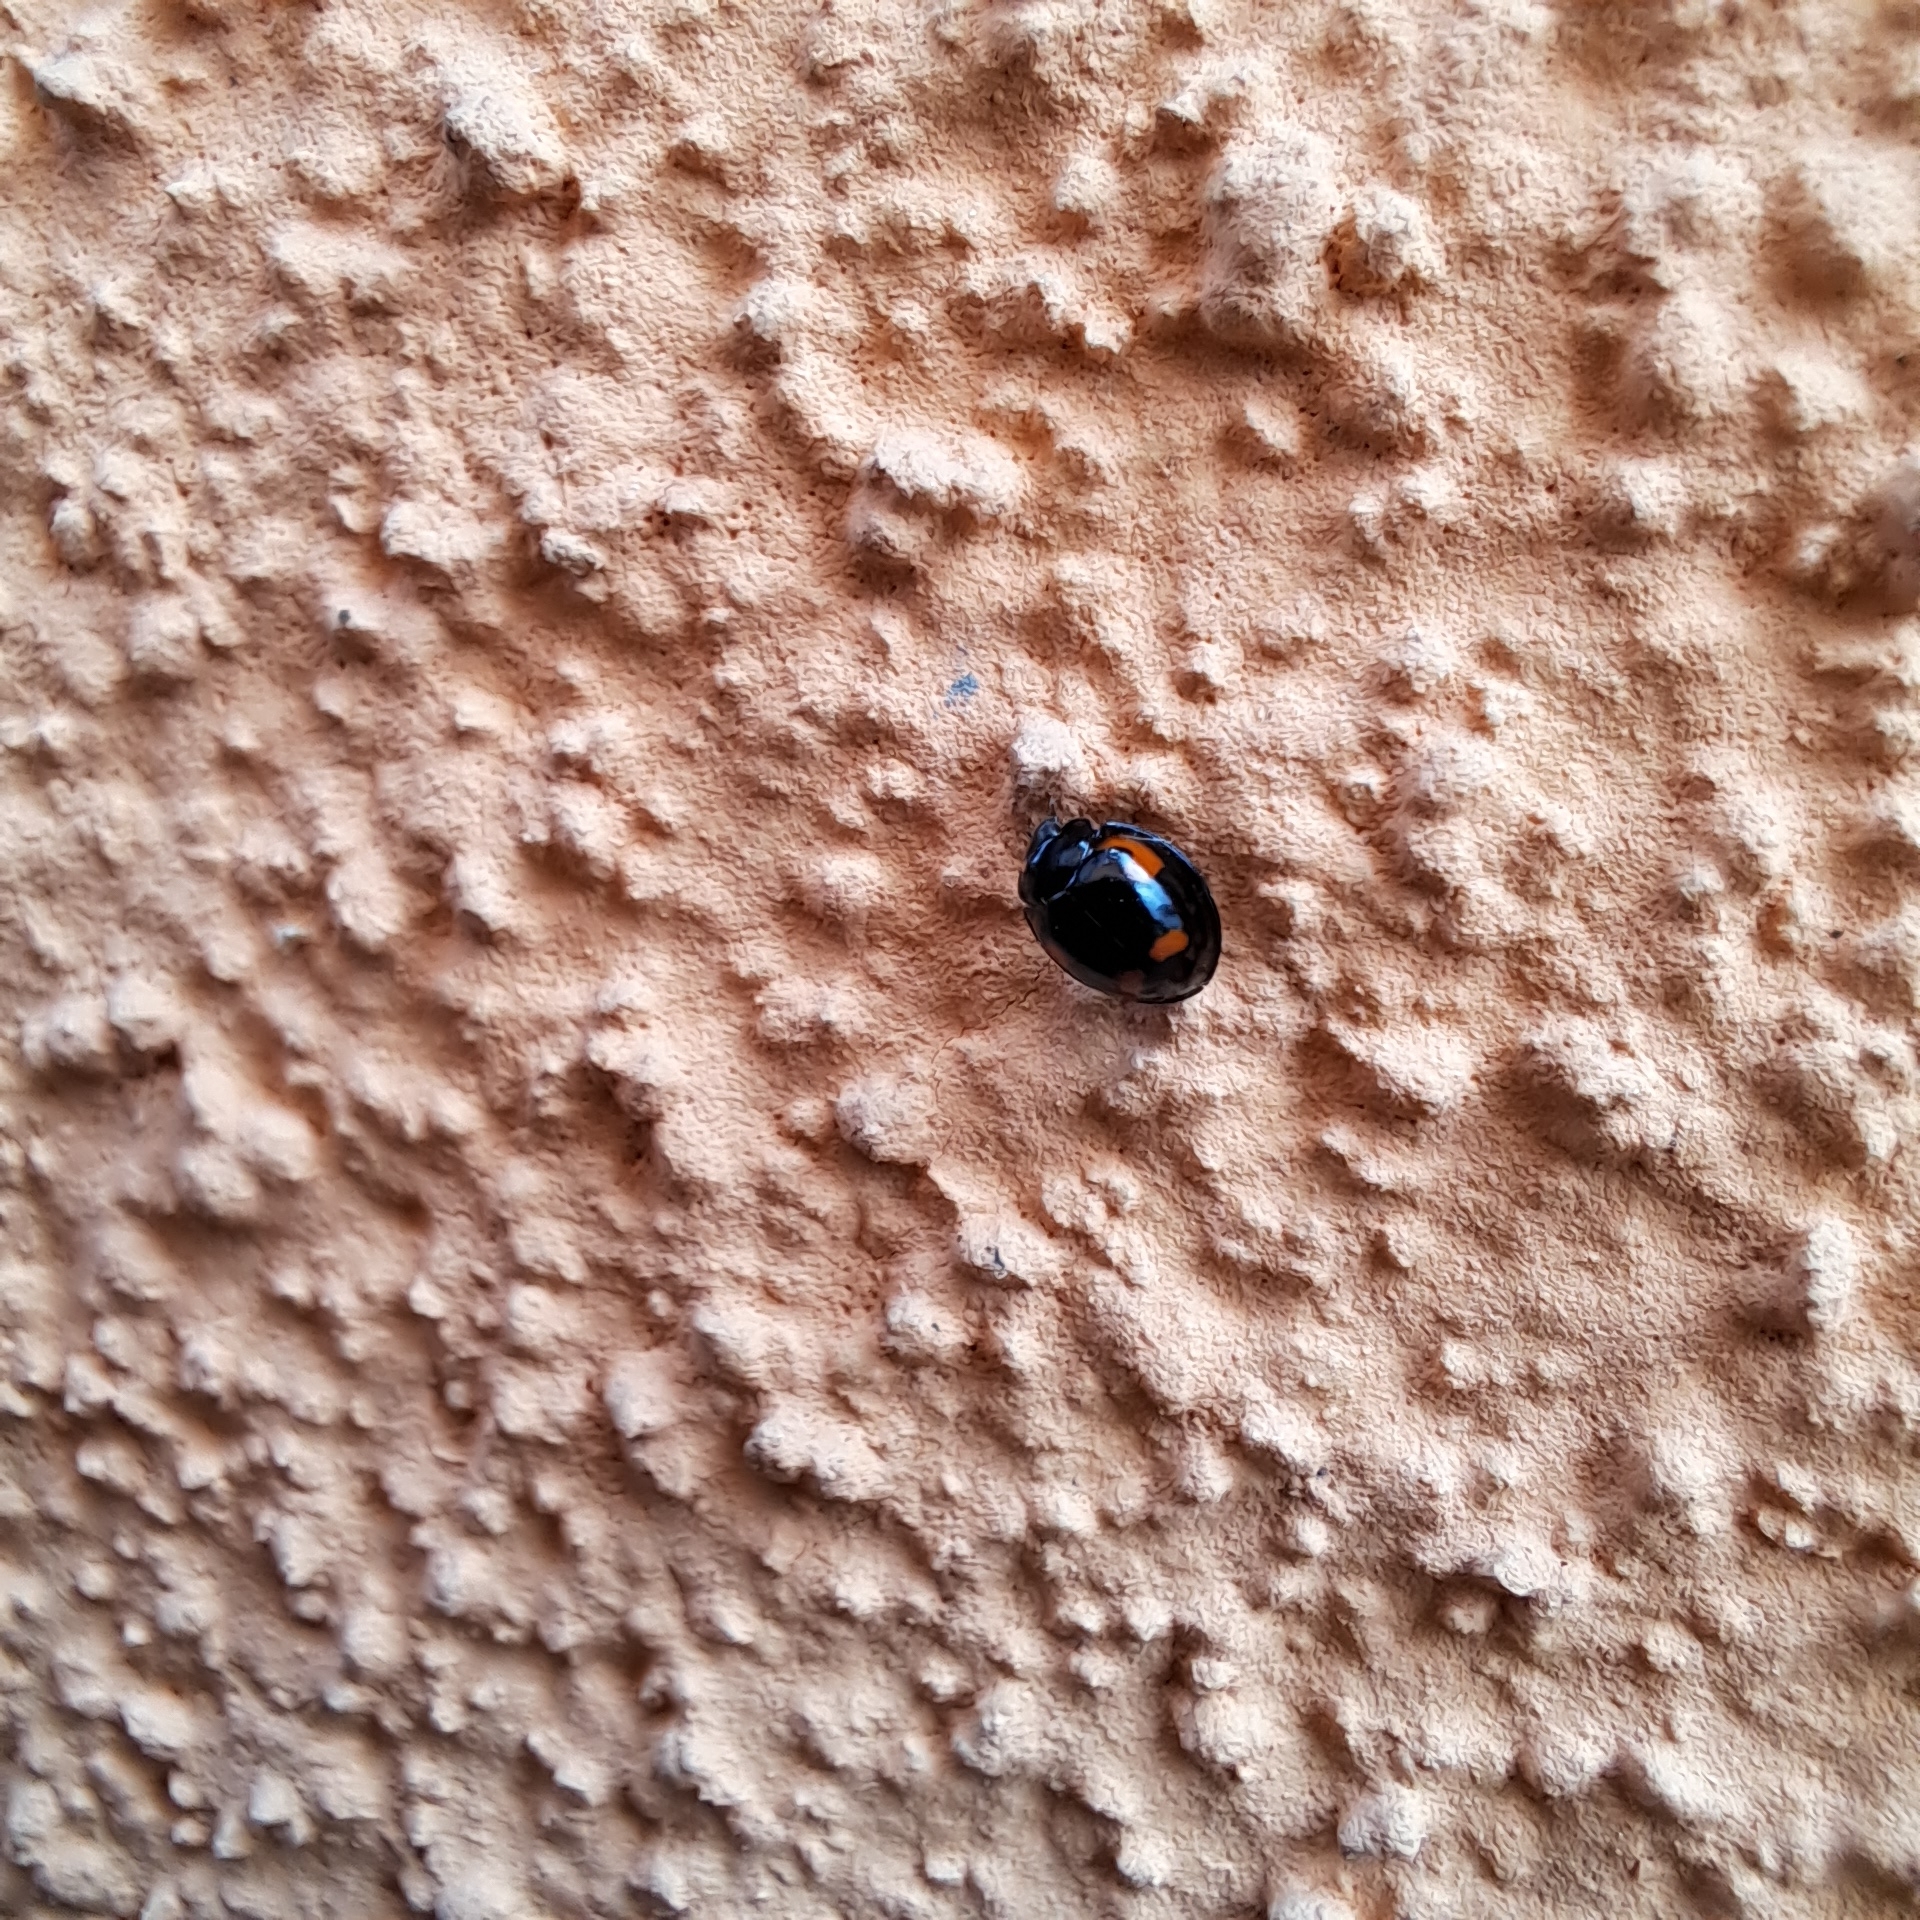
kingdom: Animalia
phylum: Arthropoda
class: Insecta
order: Coleoptera
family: Coccinellidae
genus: Brumus
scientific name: Brumus quadripustulatus
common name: Ladybird beetle
